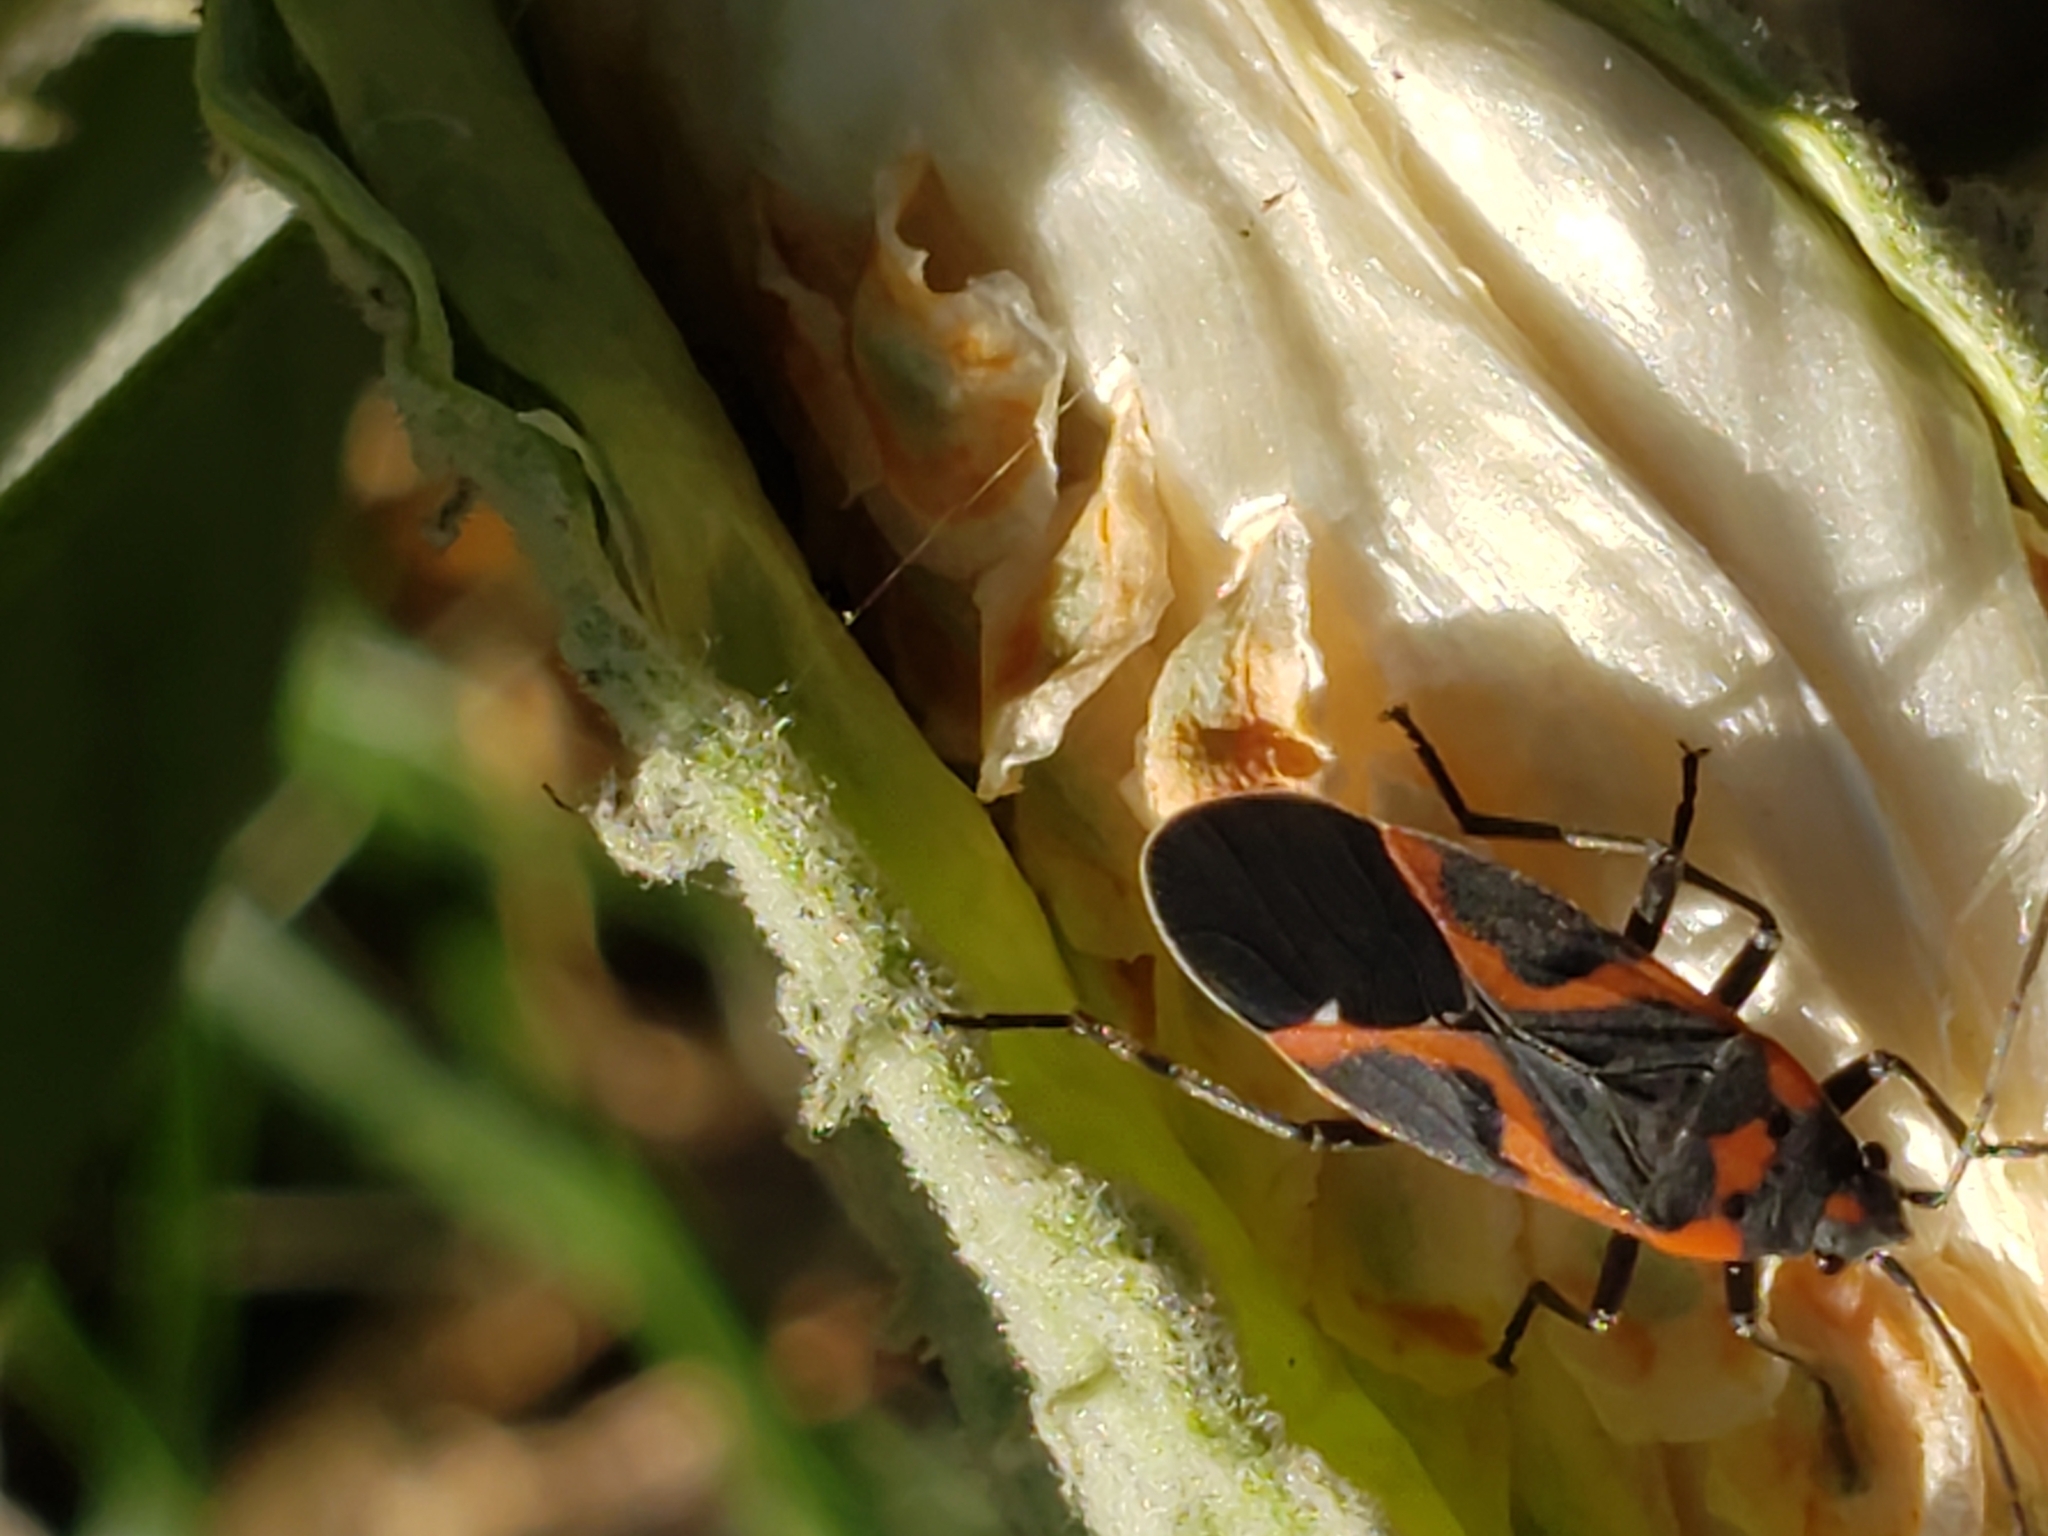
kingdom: Animalia
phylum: Arthropoda
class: Insecta
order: Hemiptera
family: Lygaeidae
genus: Lygaeus
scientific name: Lygaeus kalmii
